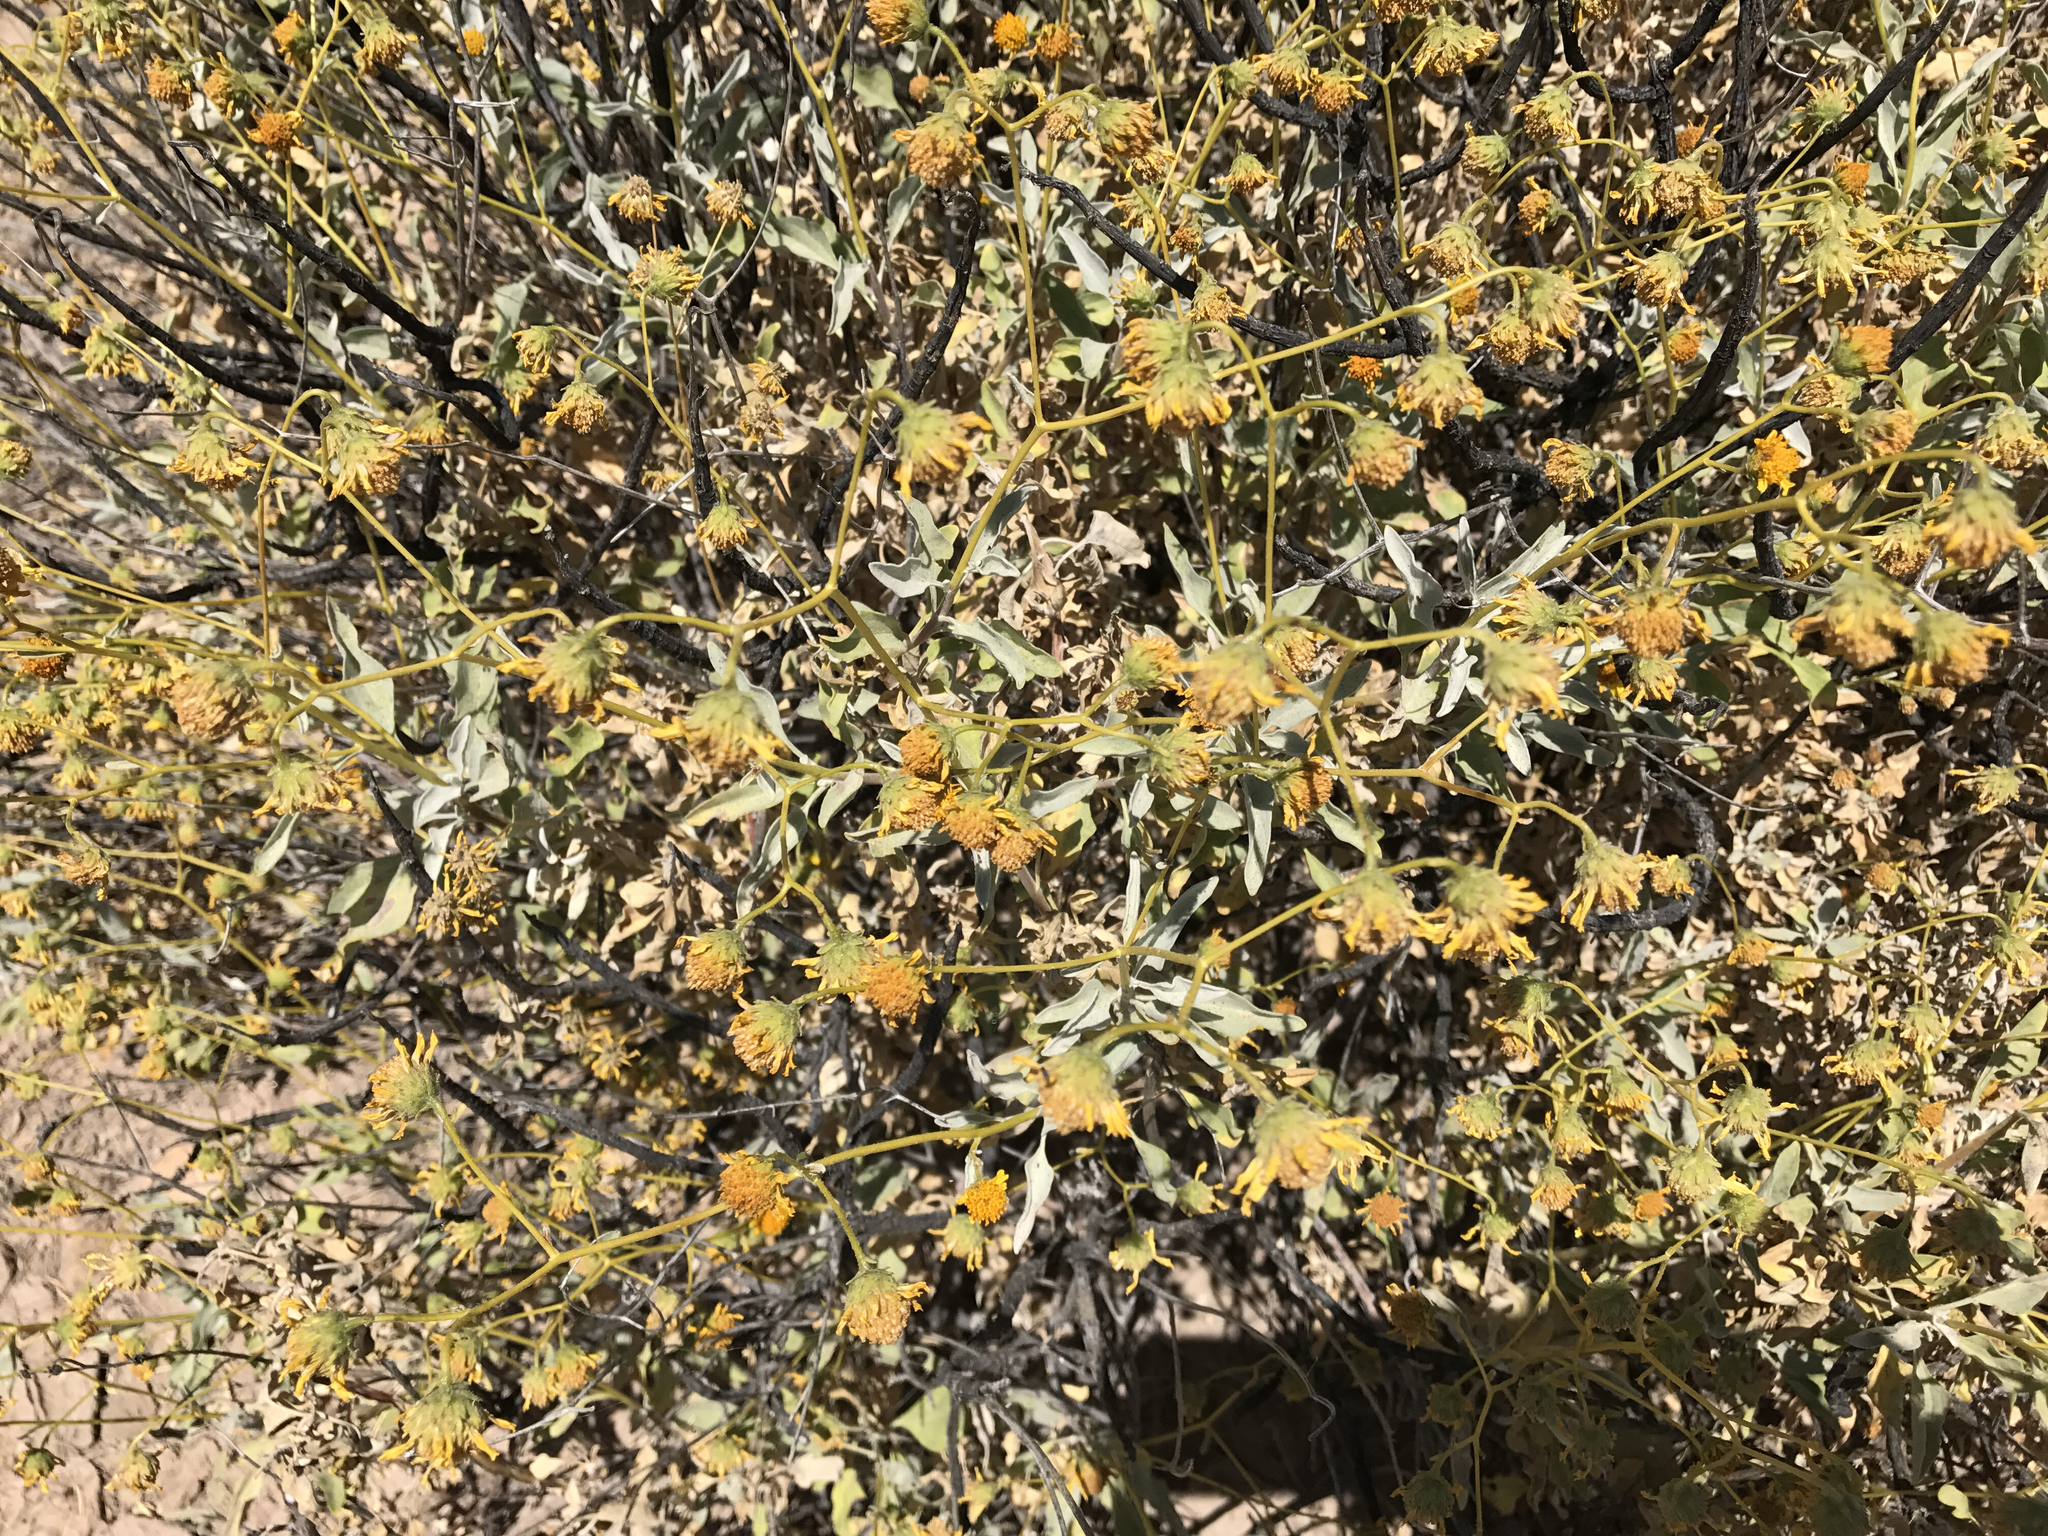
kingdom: Plantae
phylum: Tracheophyta
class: Magnoliopsida
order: Asterales
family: Asteraceae
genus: Encelia
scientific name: Encelia farinosa
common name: Brittlebush
